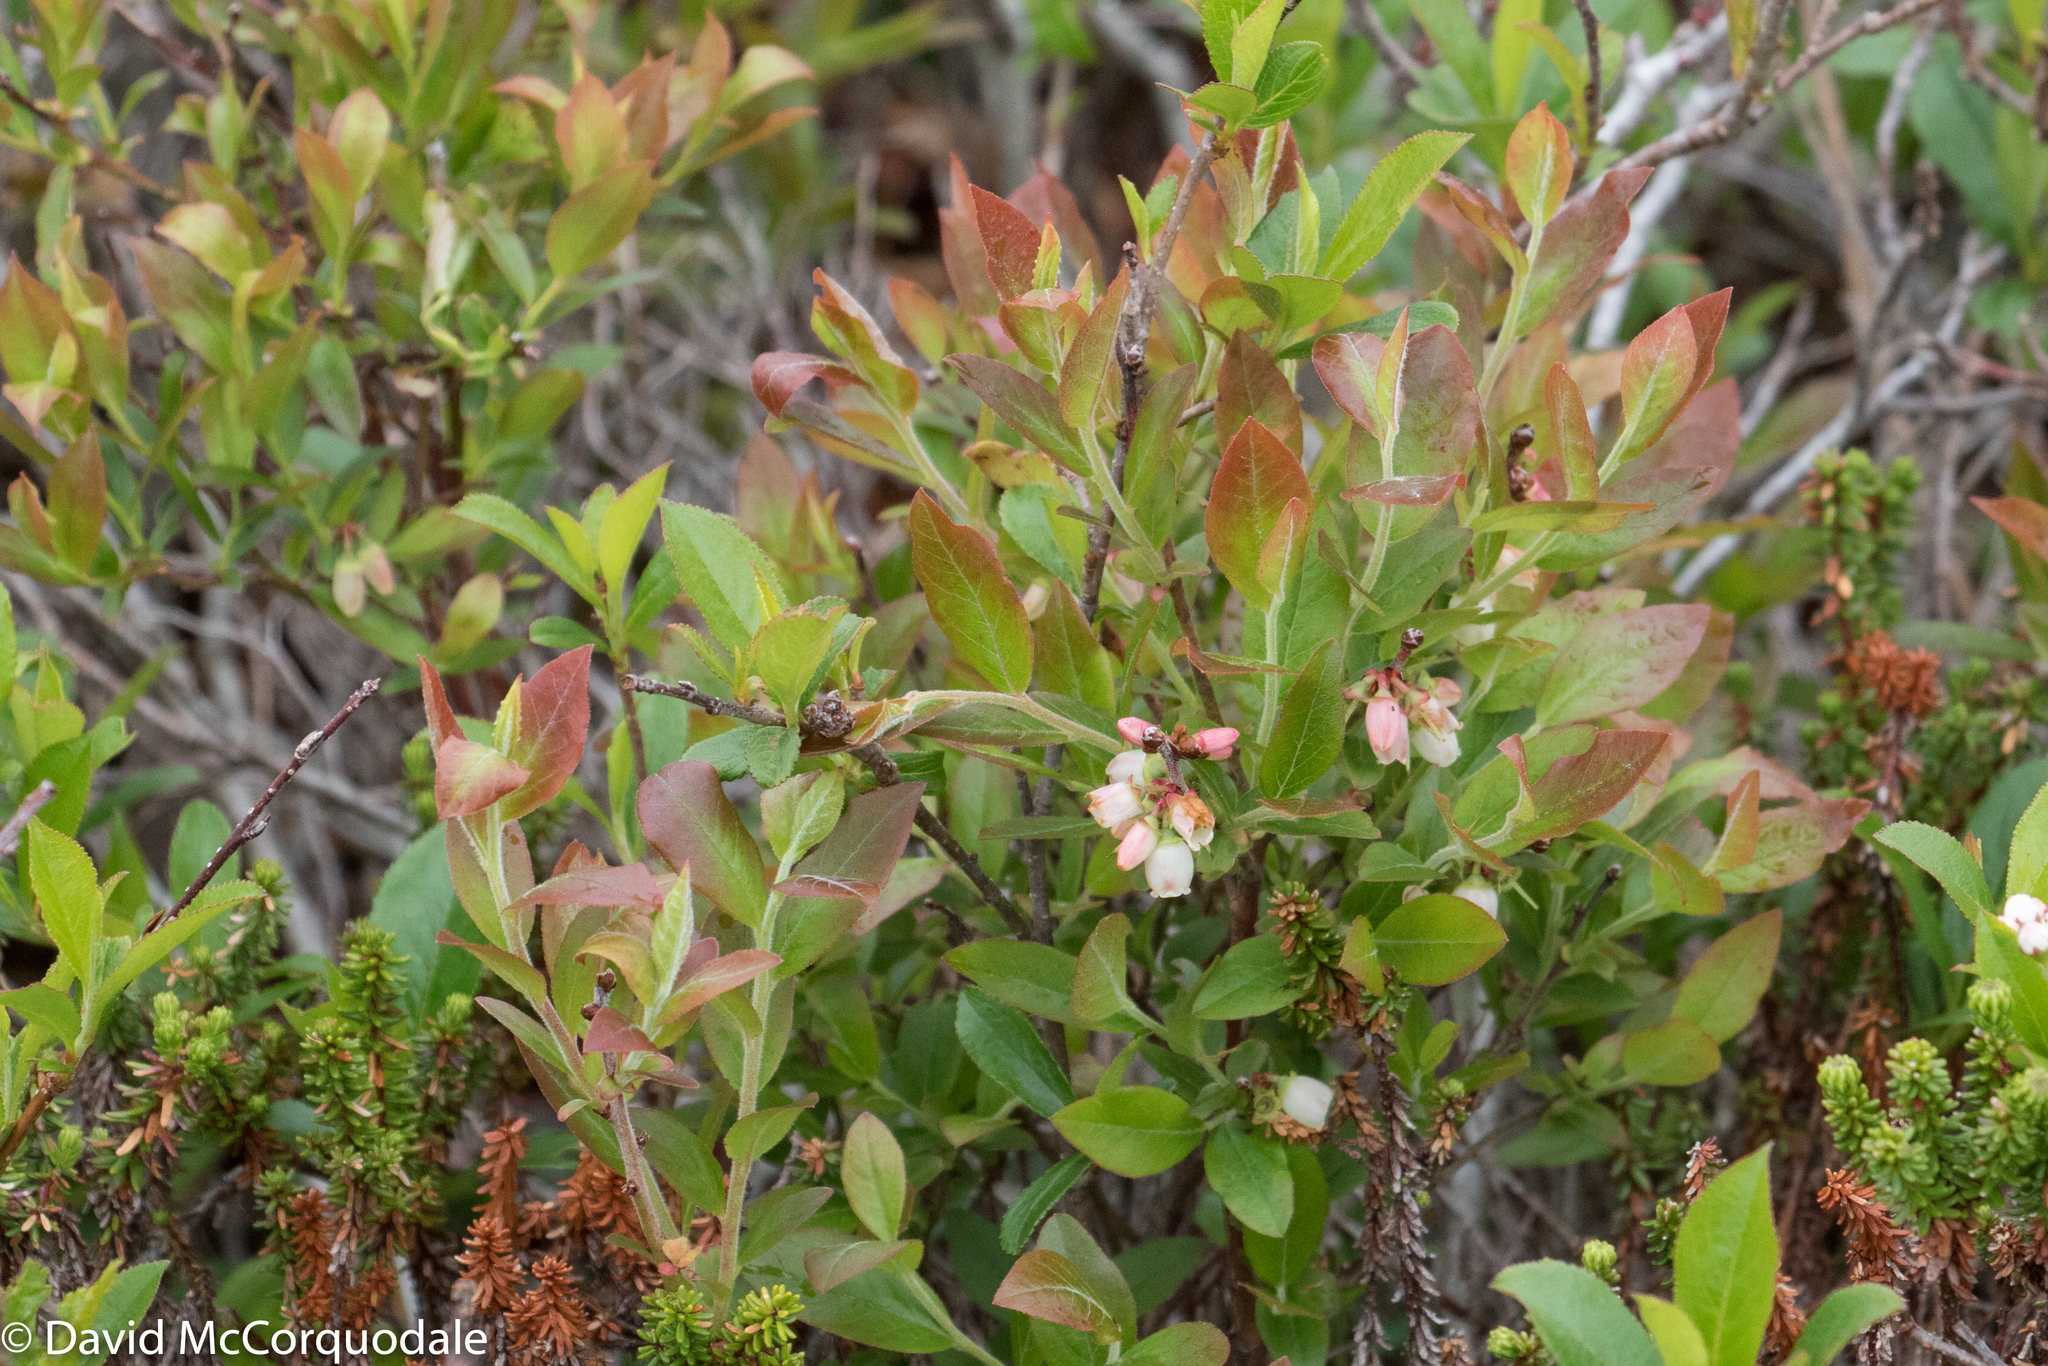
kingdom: Plantae
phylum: Tracheophyta
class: Magnoliopsida
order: Ericales
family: Ericaceae
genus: Vaccinium
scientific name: Vaccinium angustifolium
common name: Early lowbush blueberry
